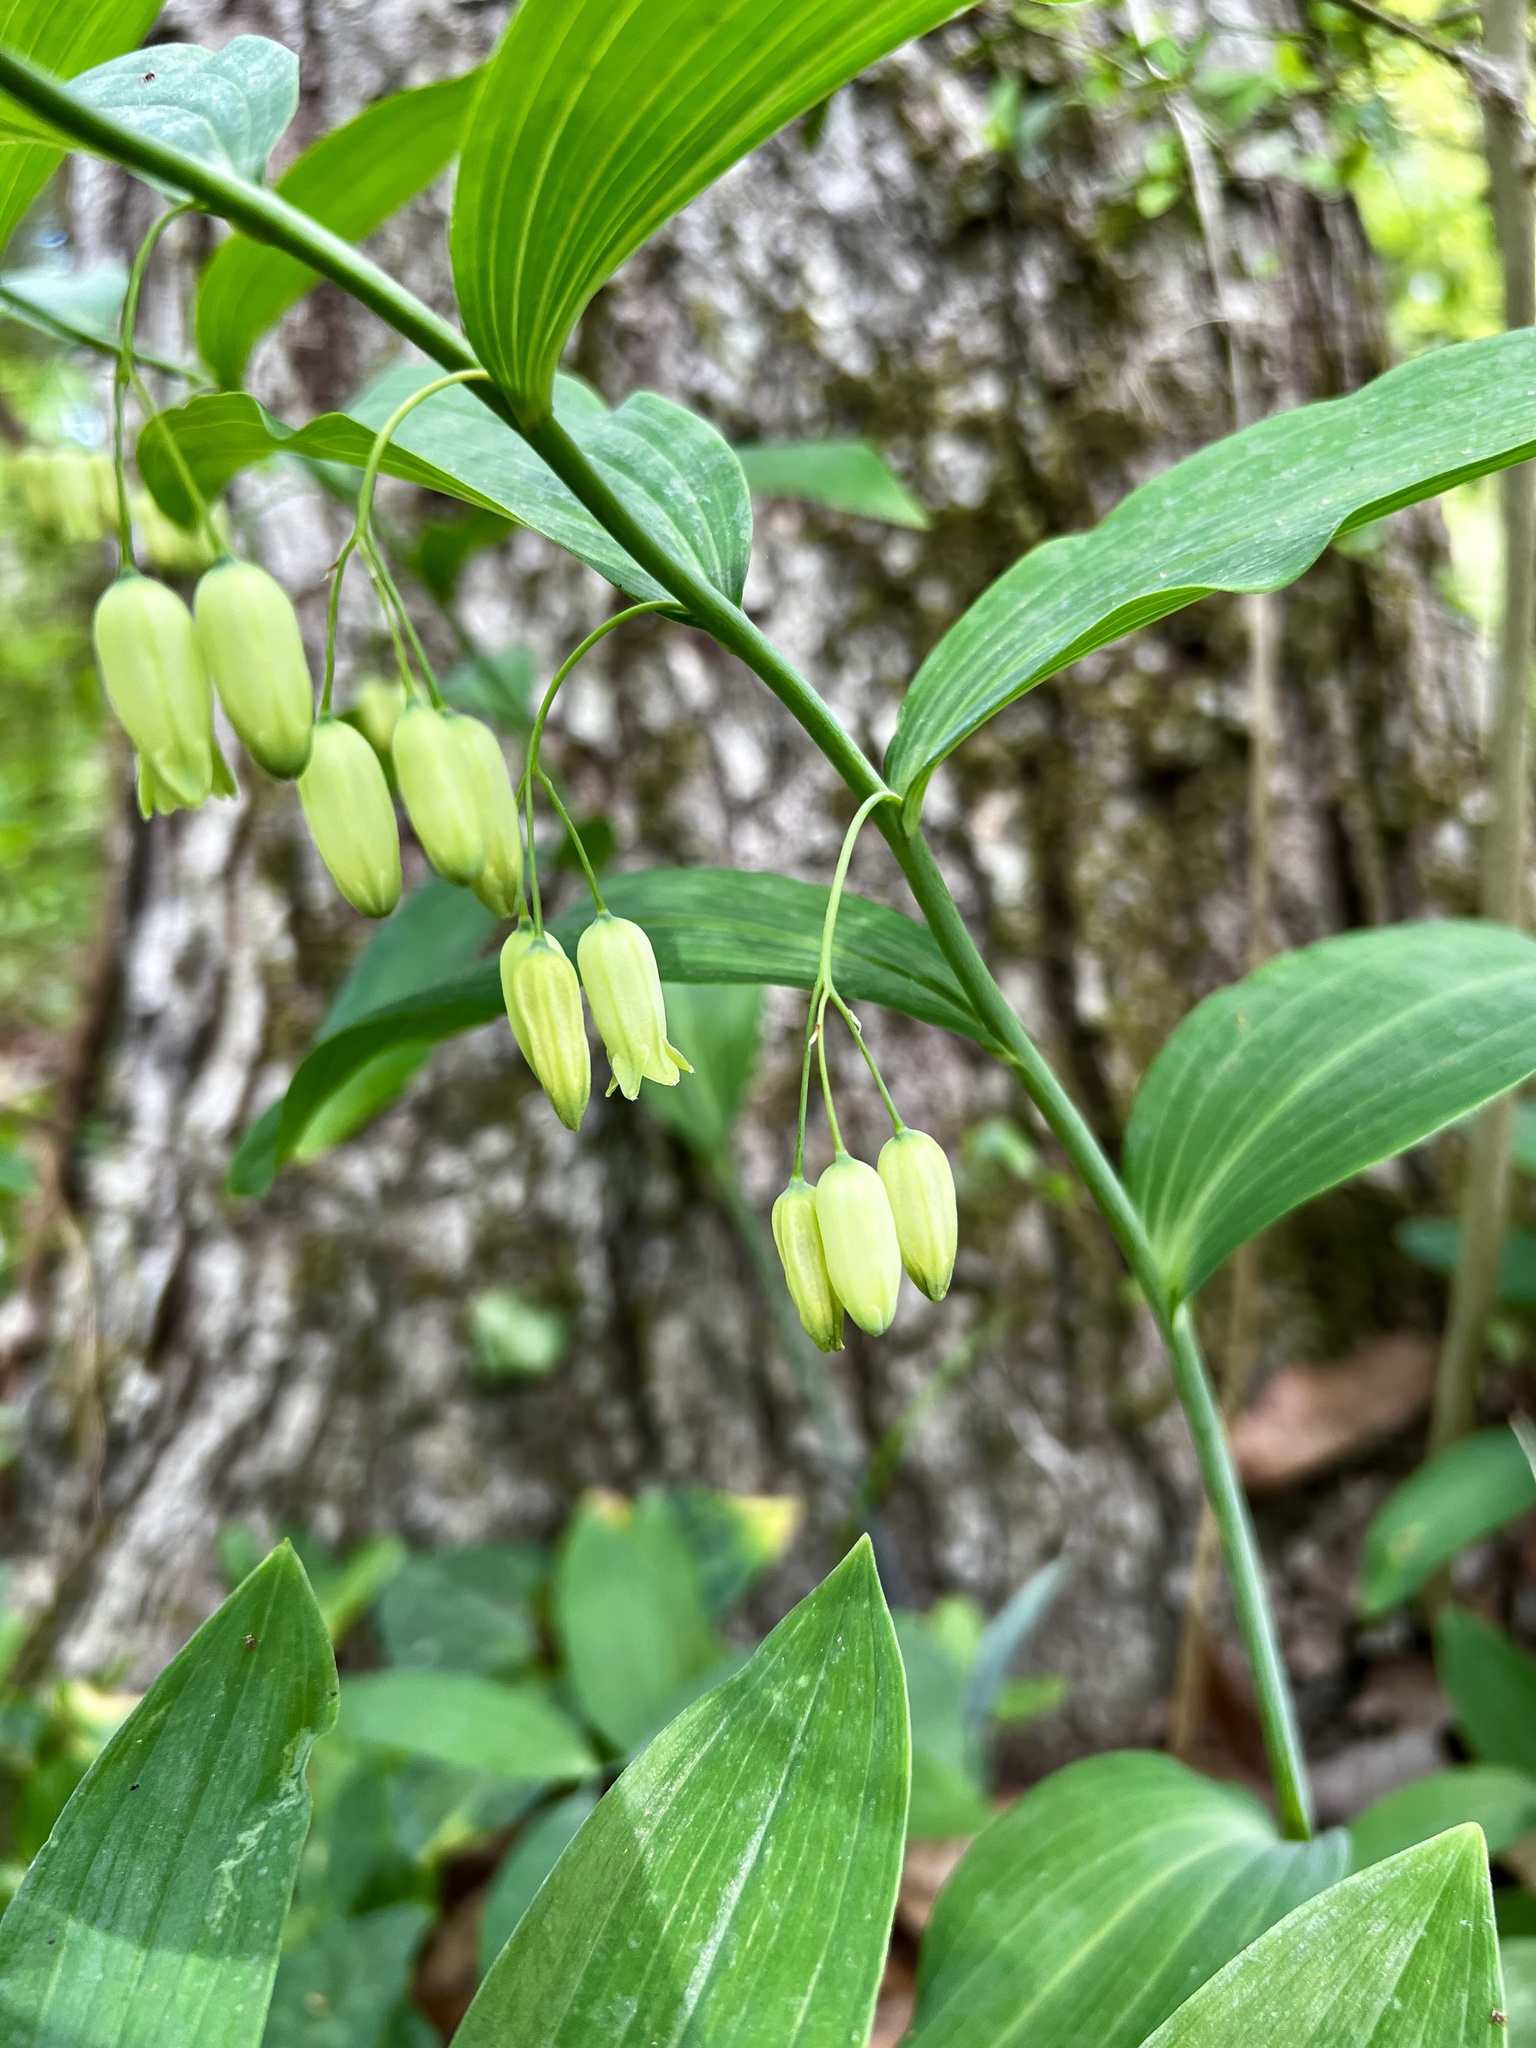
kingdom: Plantae
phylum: Tracheophyta
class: Liliopsida
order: Asparagales
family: Asparagaceae
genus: Polygonatum
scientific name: Polygonatum biflorum
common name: American solomon's-seal
